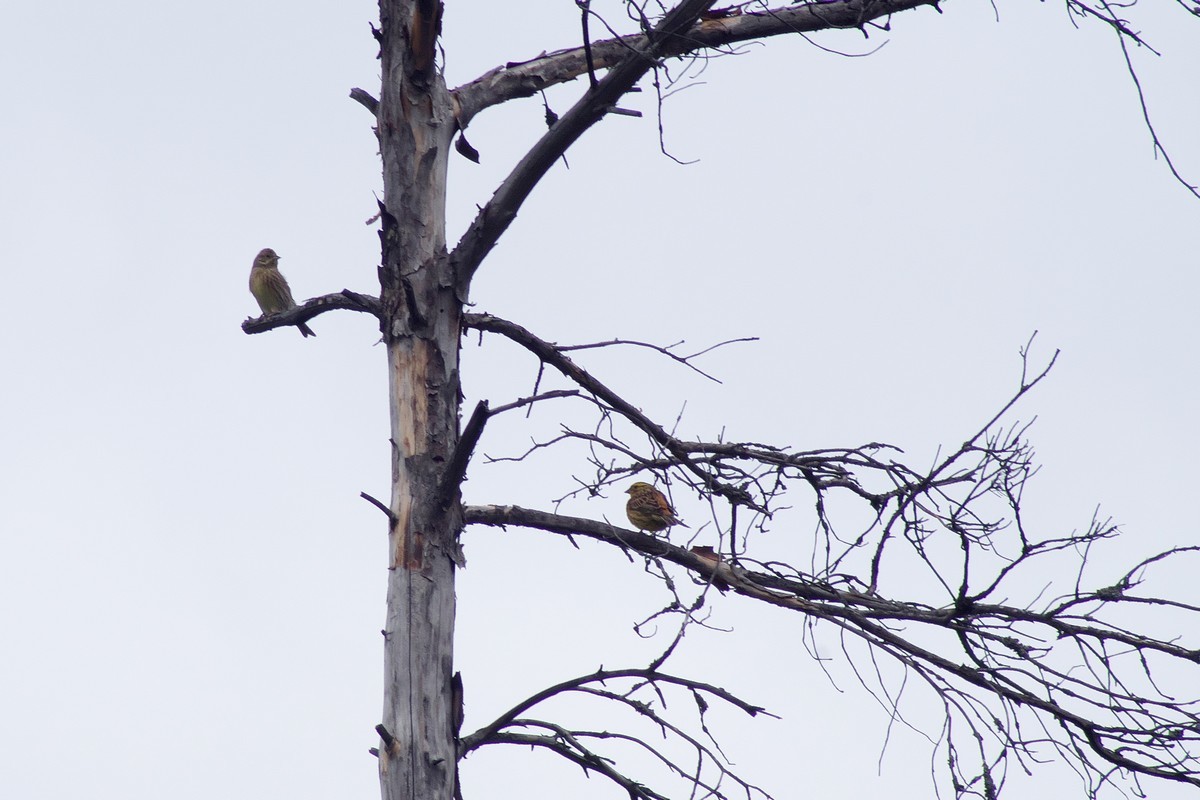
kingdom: Animalia
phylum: Chordata
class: Aves
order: Passeriformes
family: Emberizidae
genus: Emberiza
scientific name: Emberiza citrinella
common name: Yellowhammer
